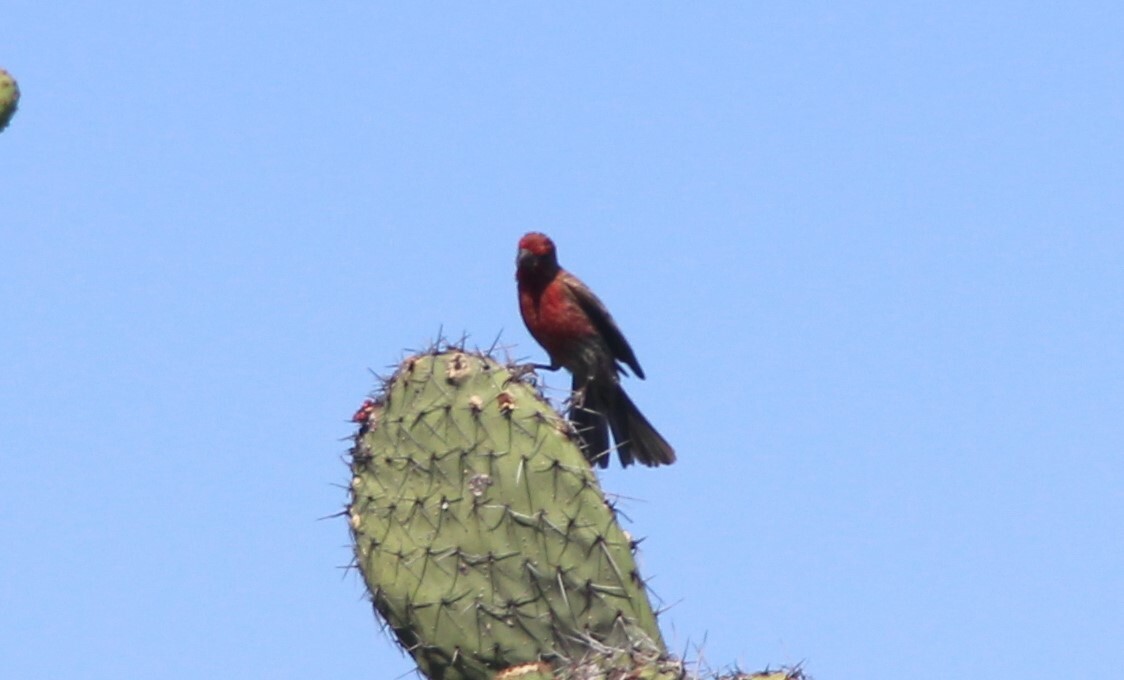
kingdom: Animalia
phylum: Chordata
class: Aves
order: Passeriformes
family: Fringillidae
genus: Haemorhous
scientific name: Haemorhous mexicanus
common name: House finch
